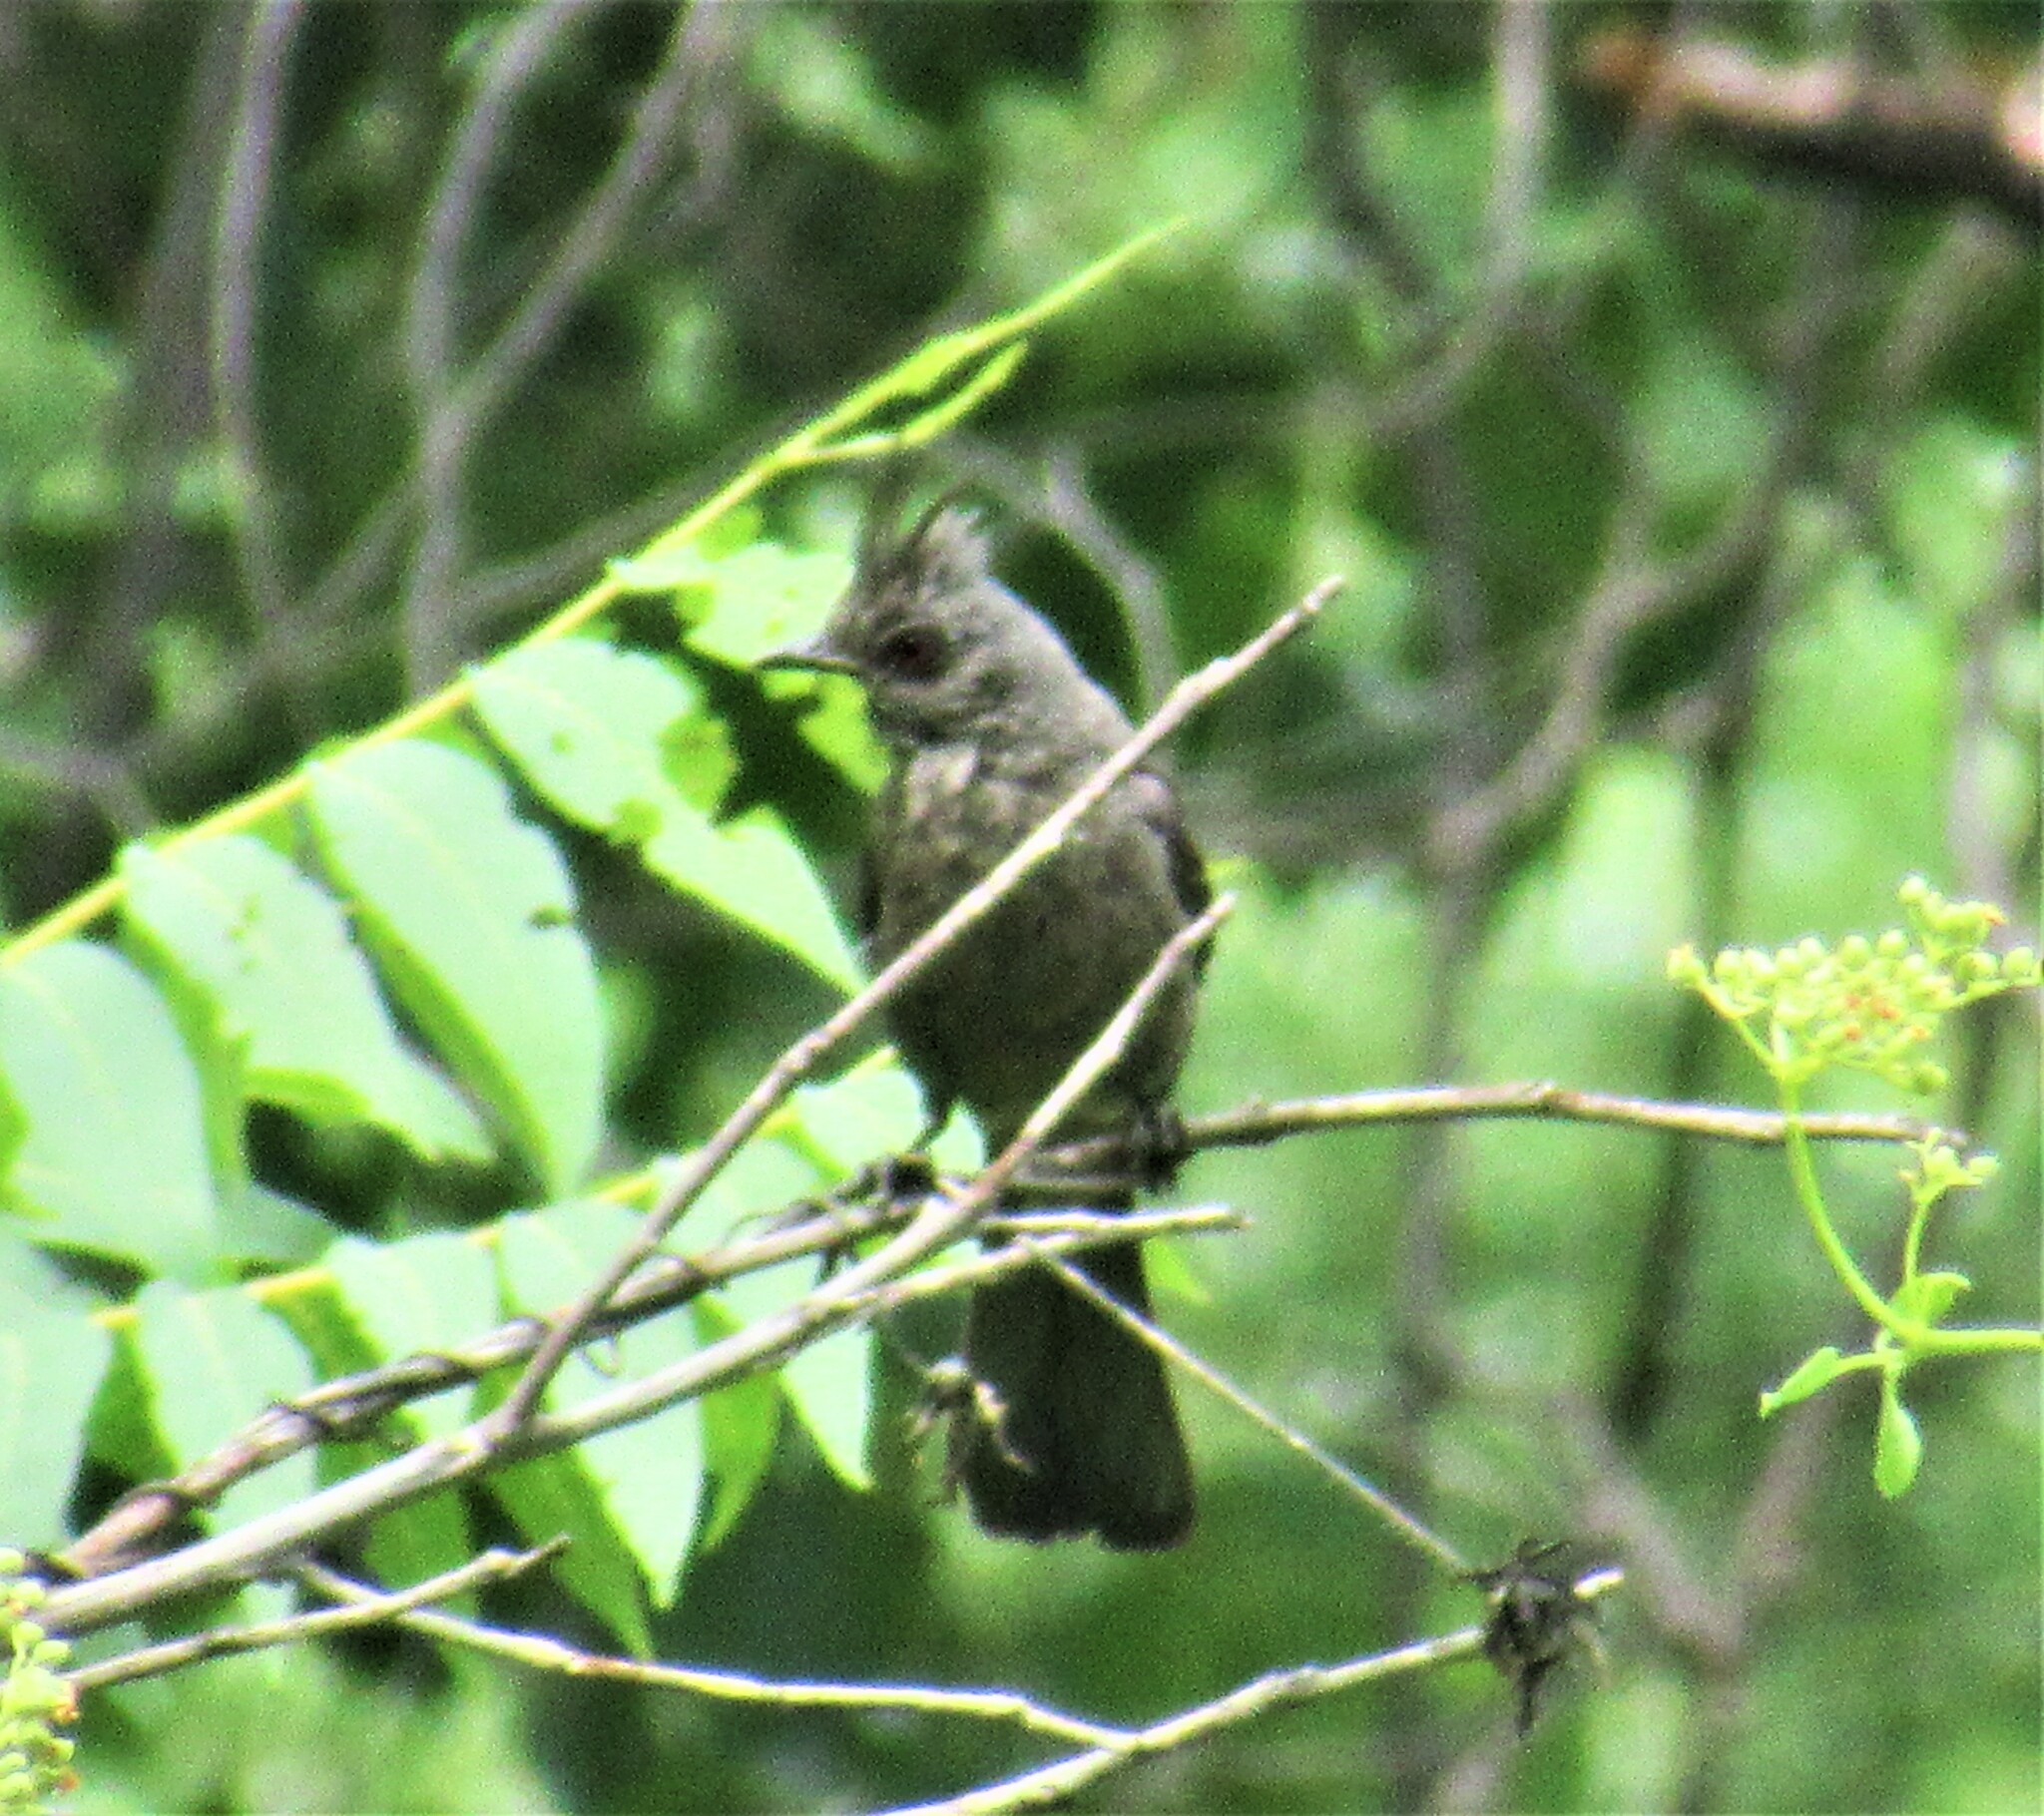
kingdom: Animalia
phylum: Chordata
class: Aves
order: Passeriformes
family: Ptilogonatidae
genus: Phainopepla
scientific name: Phainopepla nitens
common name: Phainopepla
